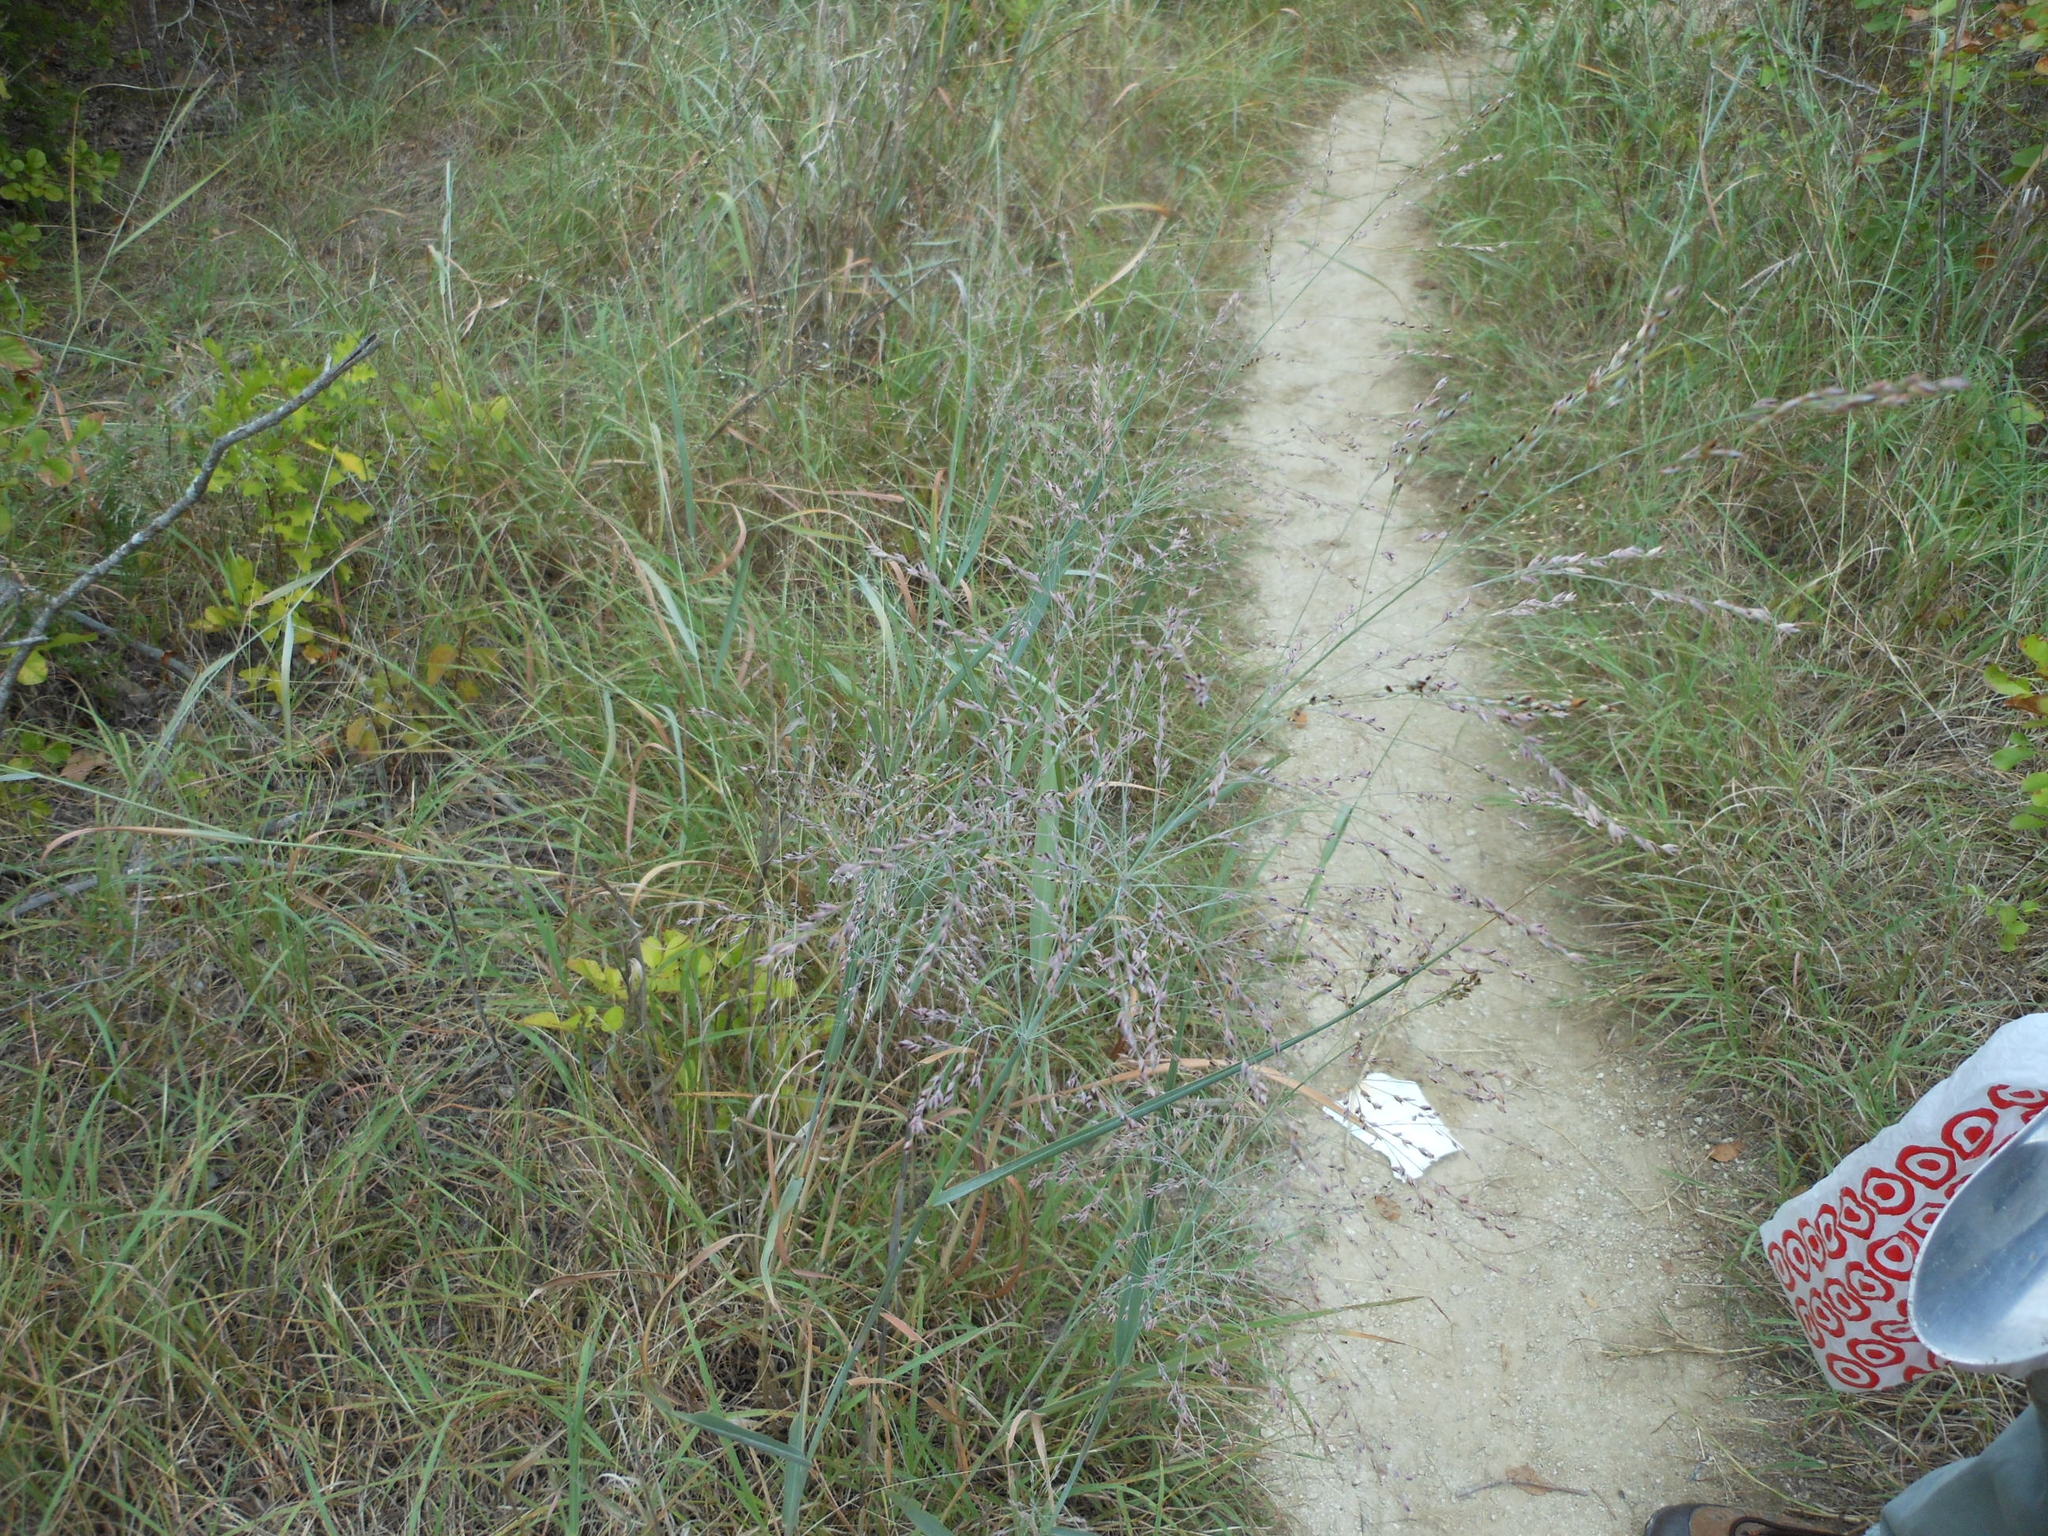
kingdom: Plantae
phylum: Tracheophyta
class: Liliopsida
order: Poales
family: Poaceae
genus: Panicum
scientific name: Panicum virgatum
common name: Switchgrass
